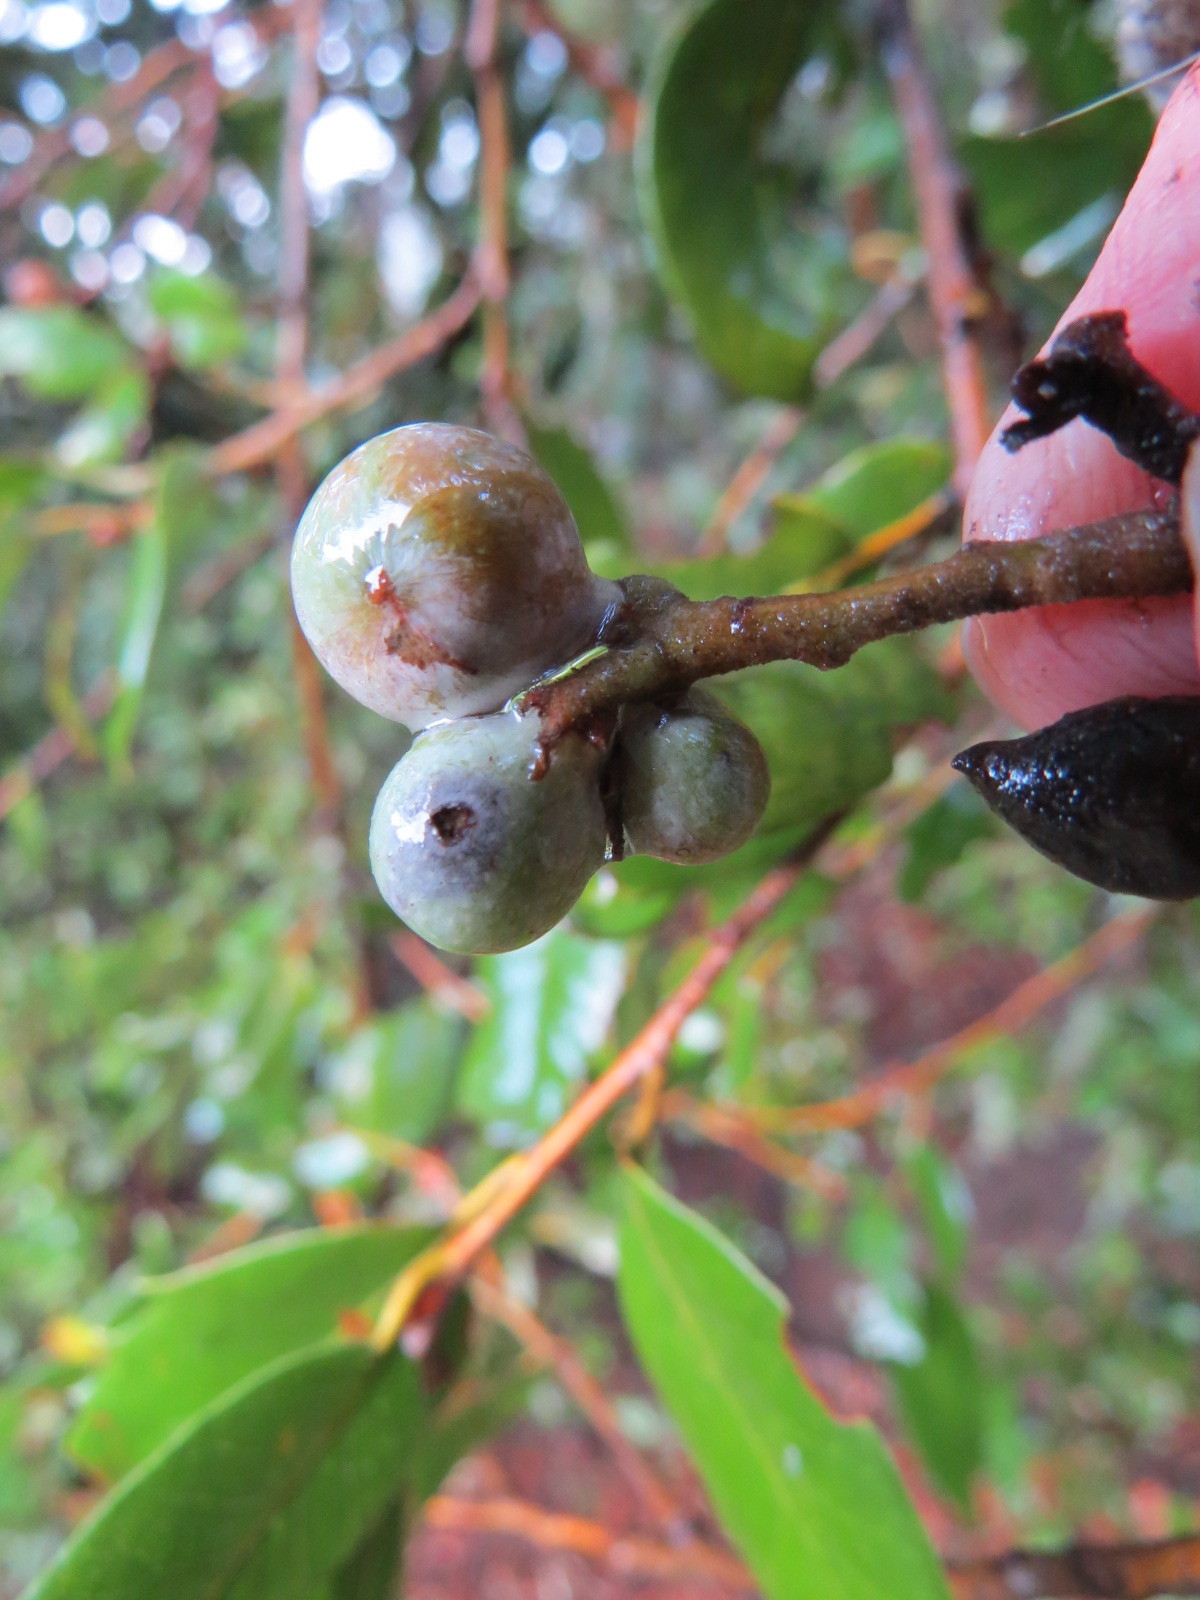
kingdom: Animalia
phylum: Arthropoda
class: Insecta
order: Hymenoptera
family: Cynipidae
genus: Heteroecus
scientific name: Heteroecus
